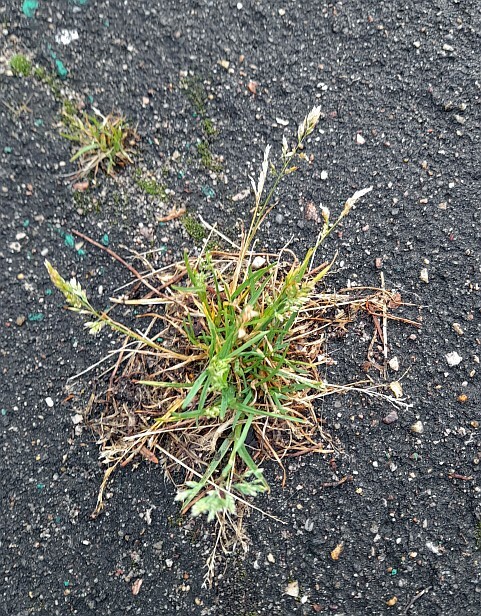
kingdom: Plantae
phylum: Tracheophyta
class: Liliopsida
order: Poales
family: Poaceae
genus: Poa
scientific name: Poa annua
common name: Annual bluegrass
